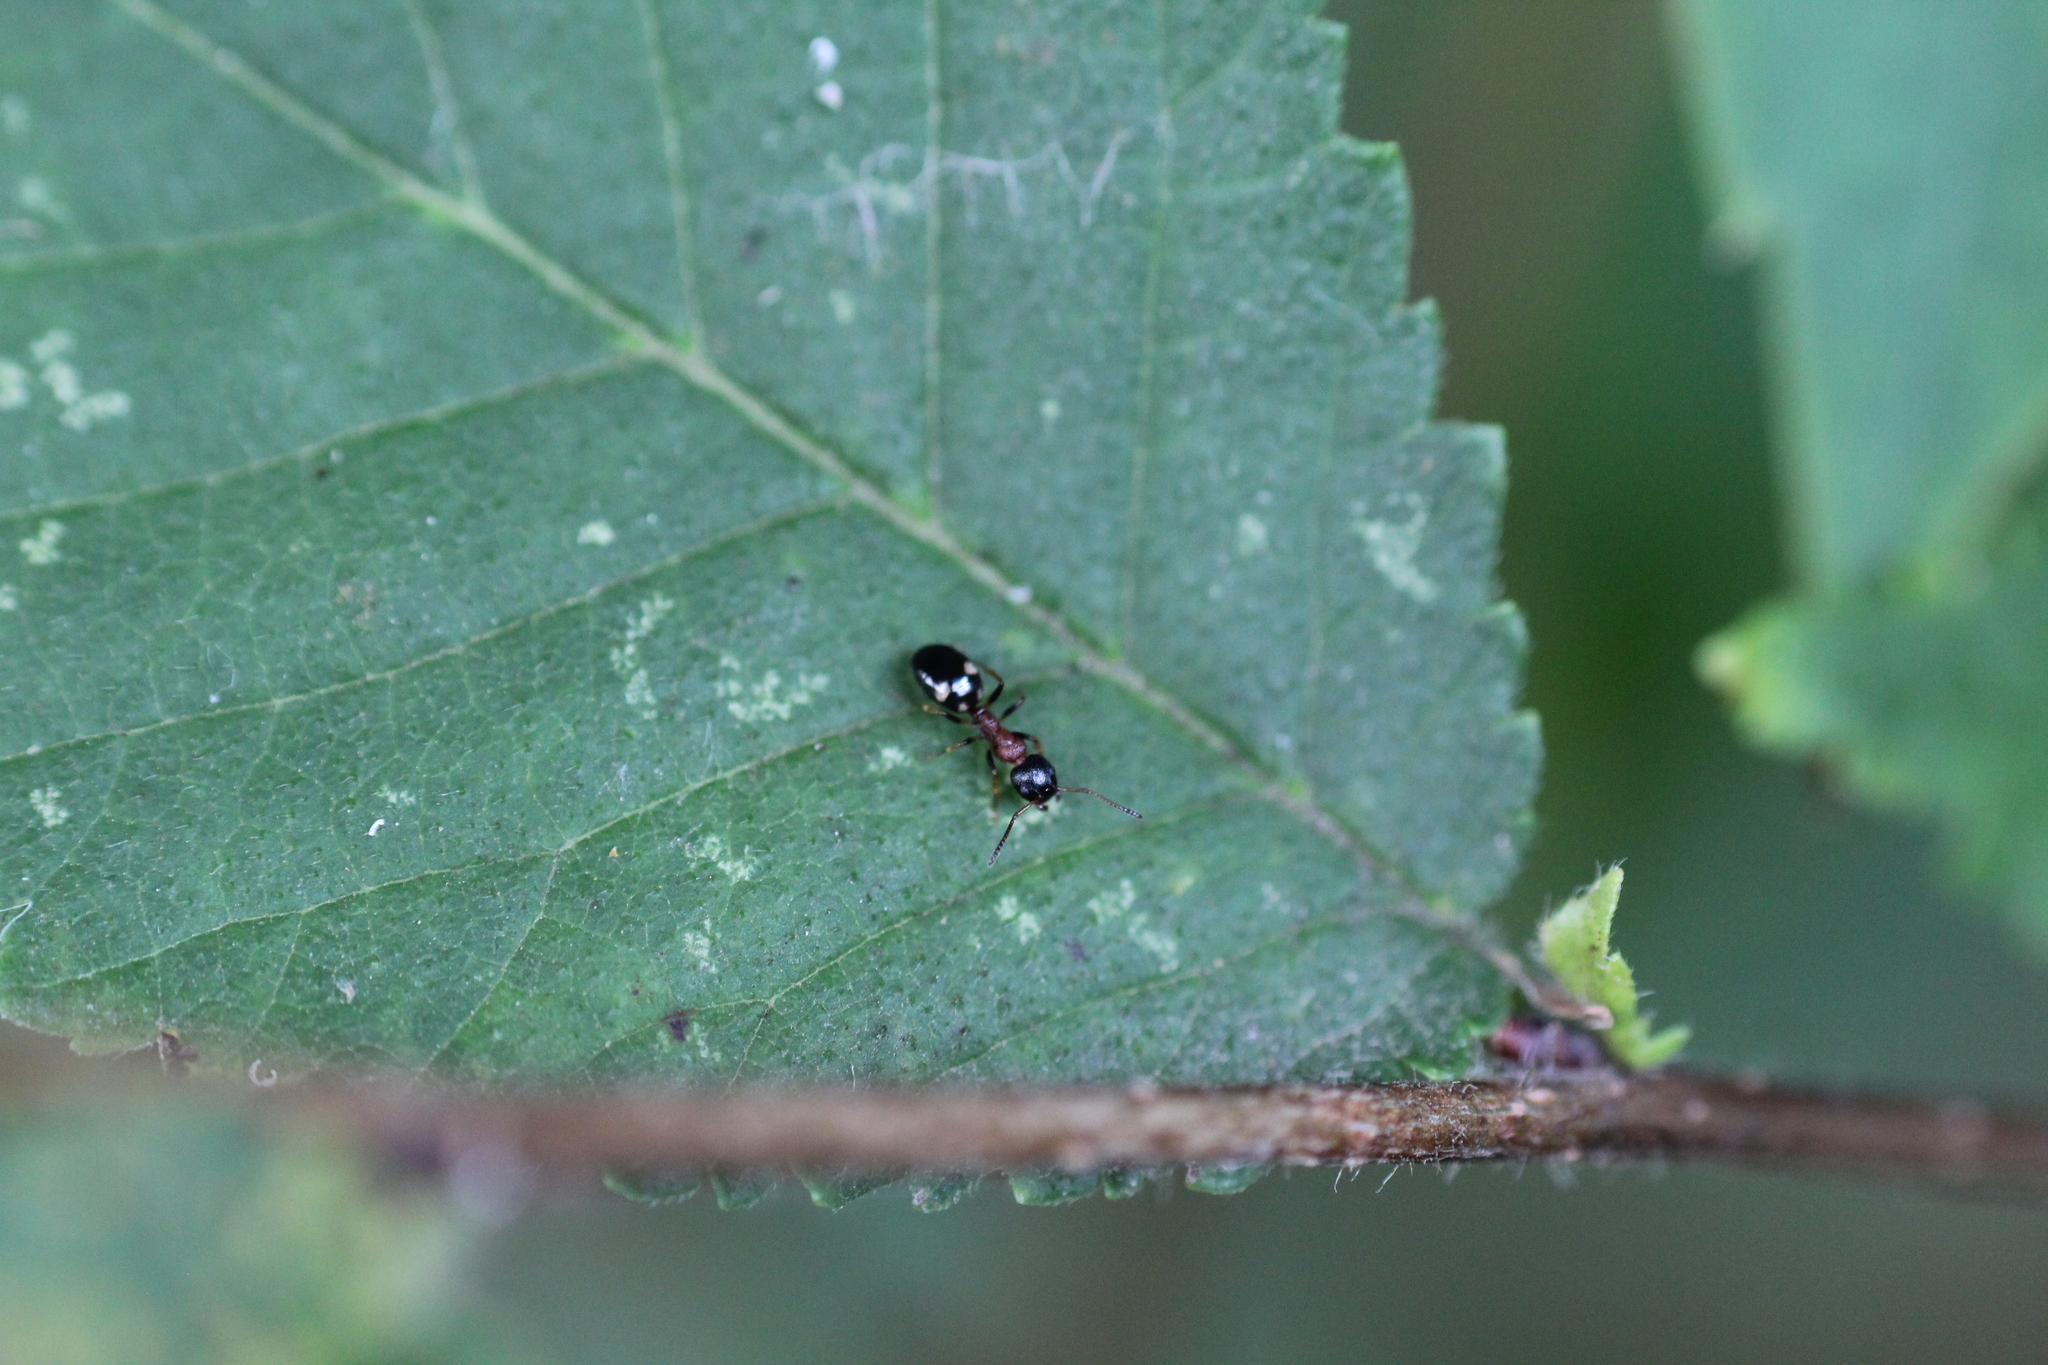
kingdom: Animalia
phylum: Arthropoda
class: Insecta
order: Hymenoptera
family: Formicidae
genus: Dolichoderus
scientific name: Dolichoderus quadripunctatus
